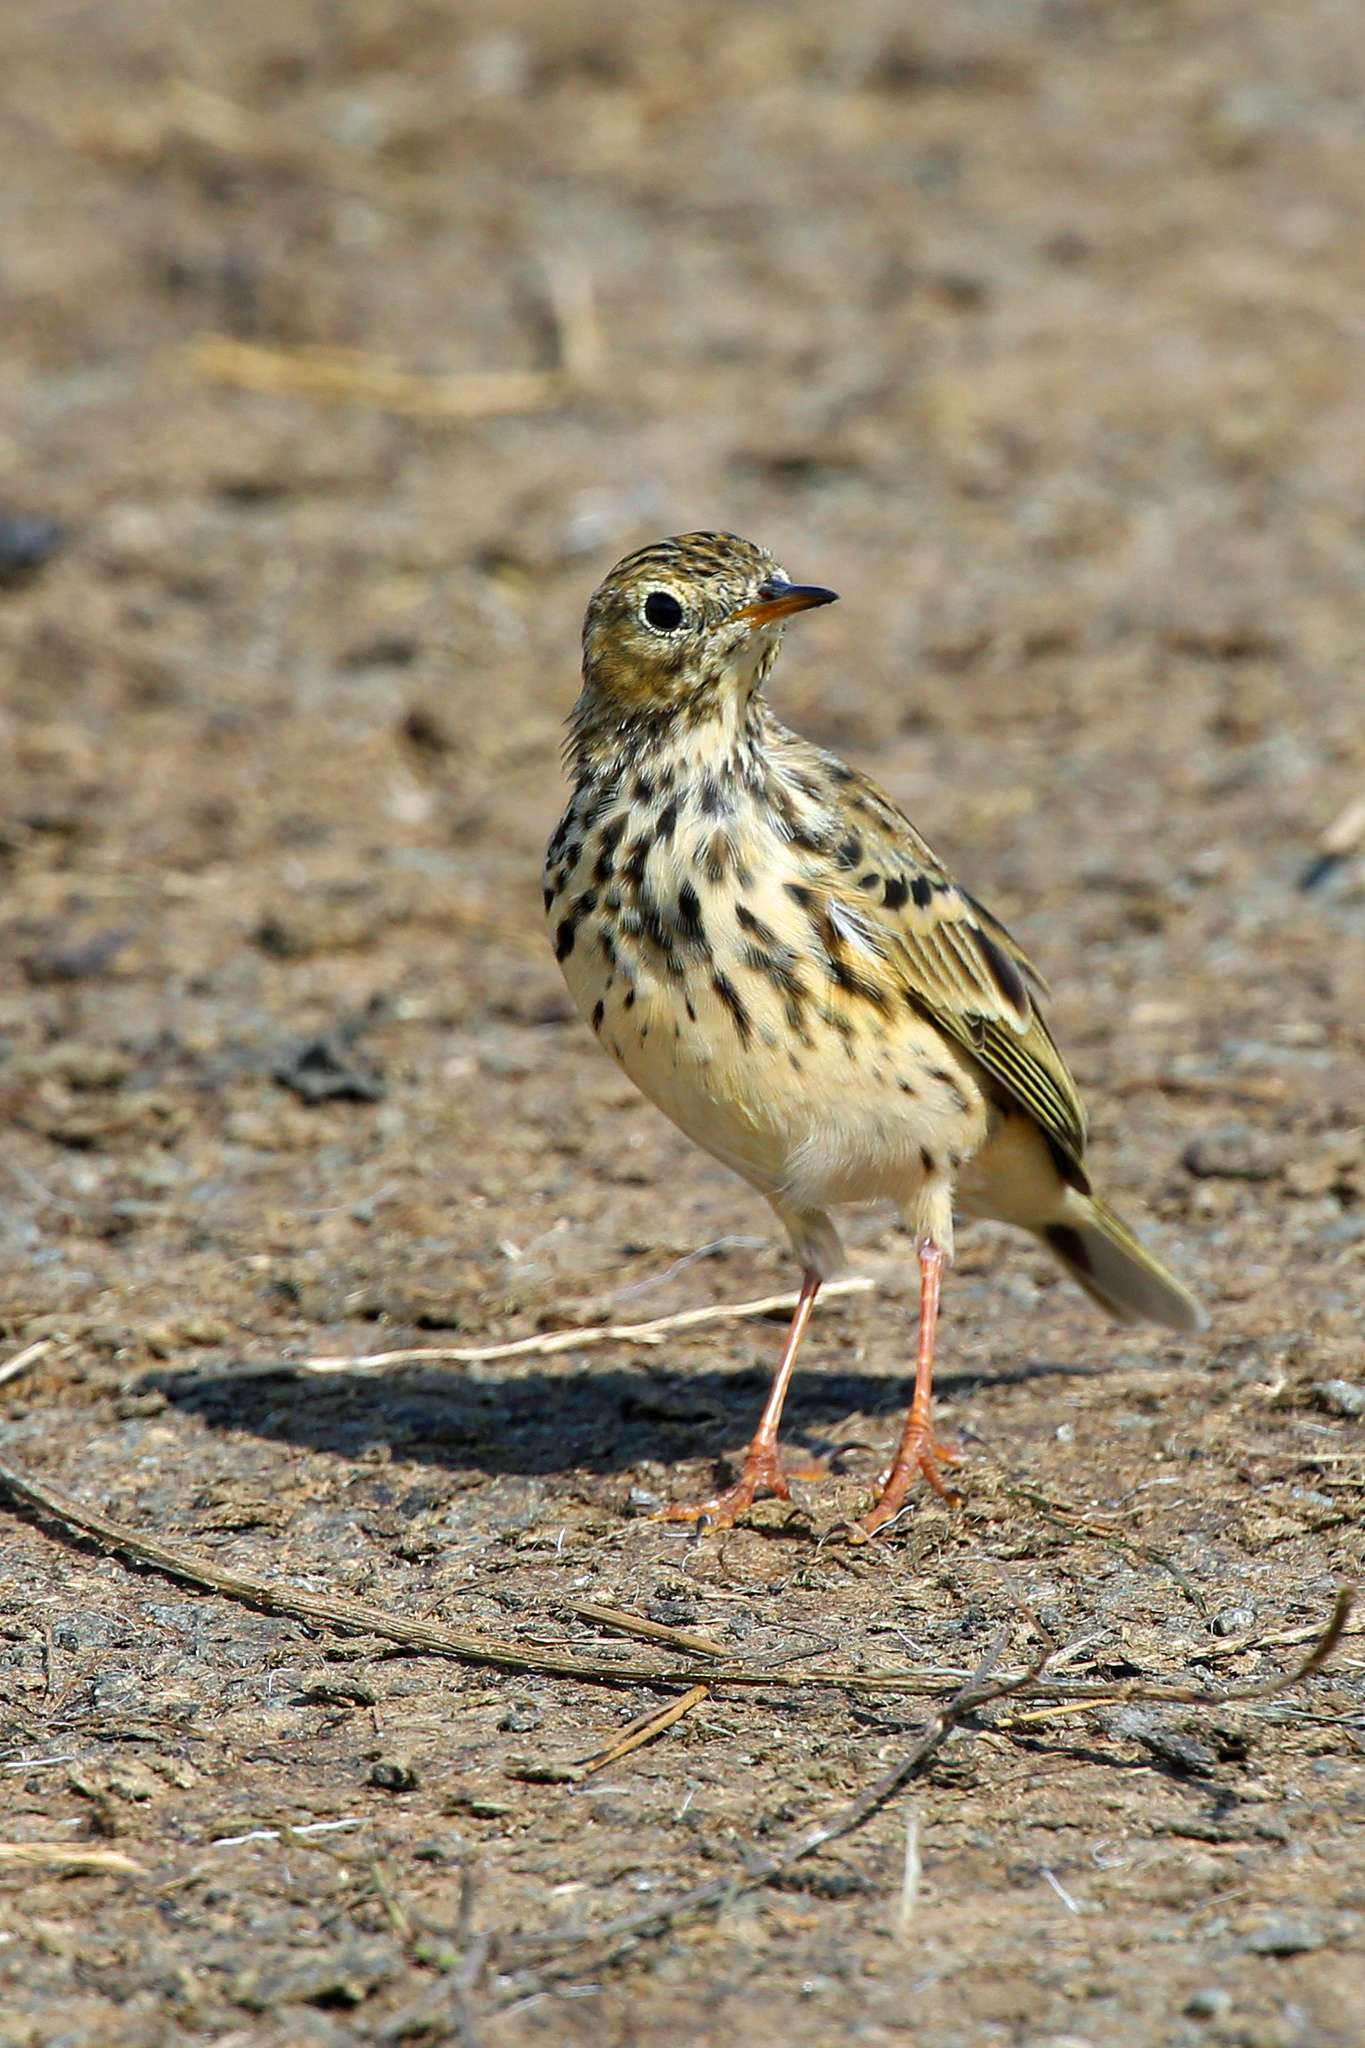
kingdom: Animalia
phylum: Chordata
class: Aves
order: Passeriformes
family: Motacillidae
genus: Anthus
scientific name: Anthus pratensis
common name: Meadow pipit
